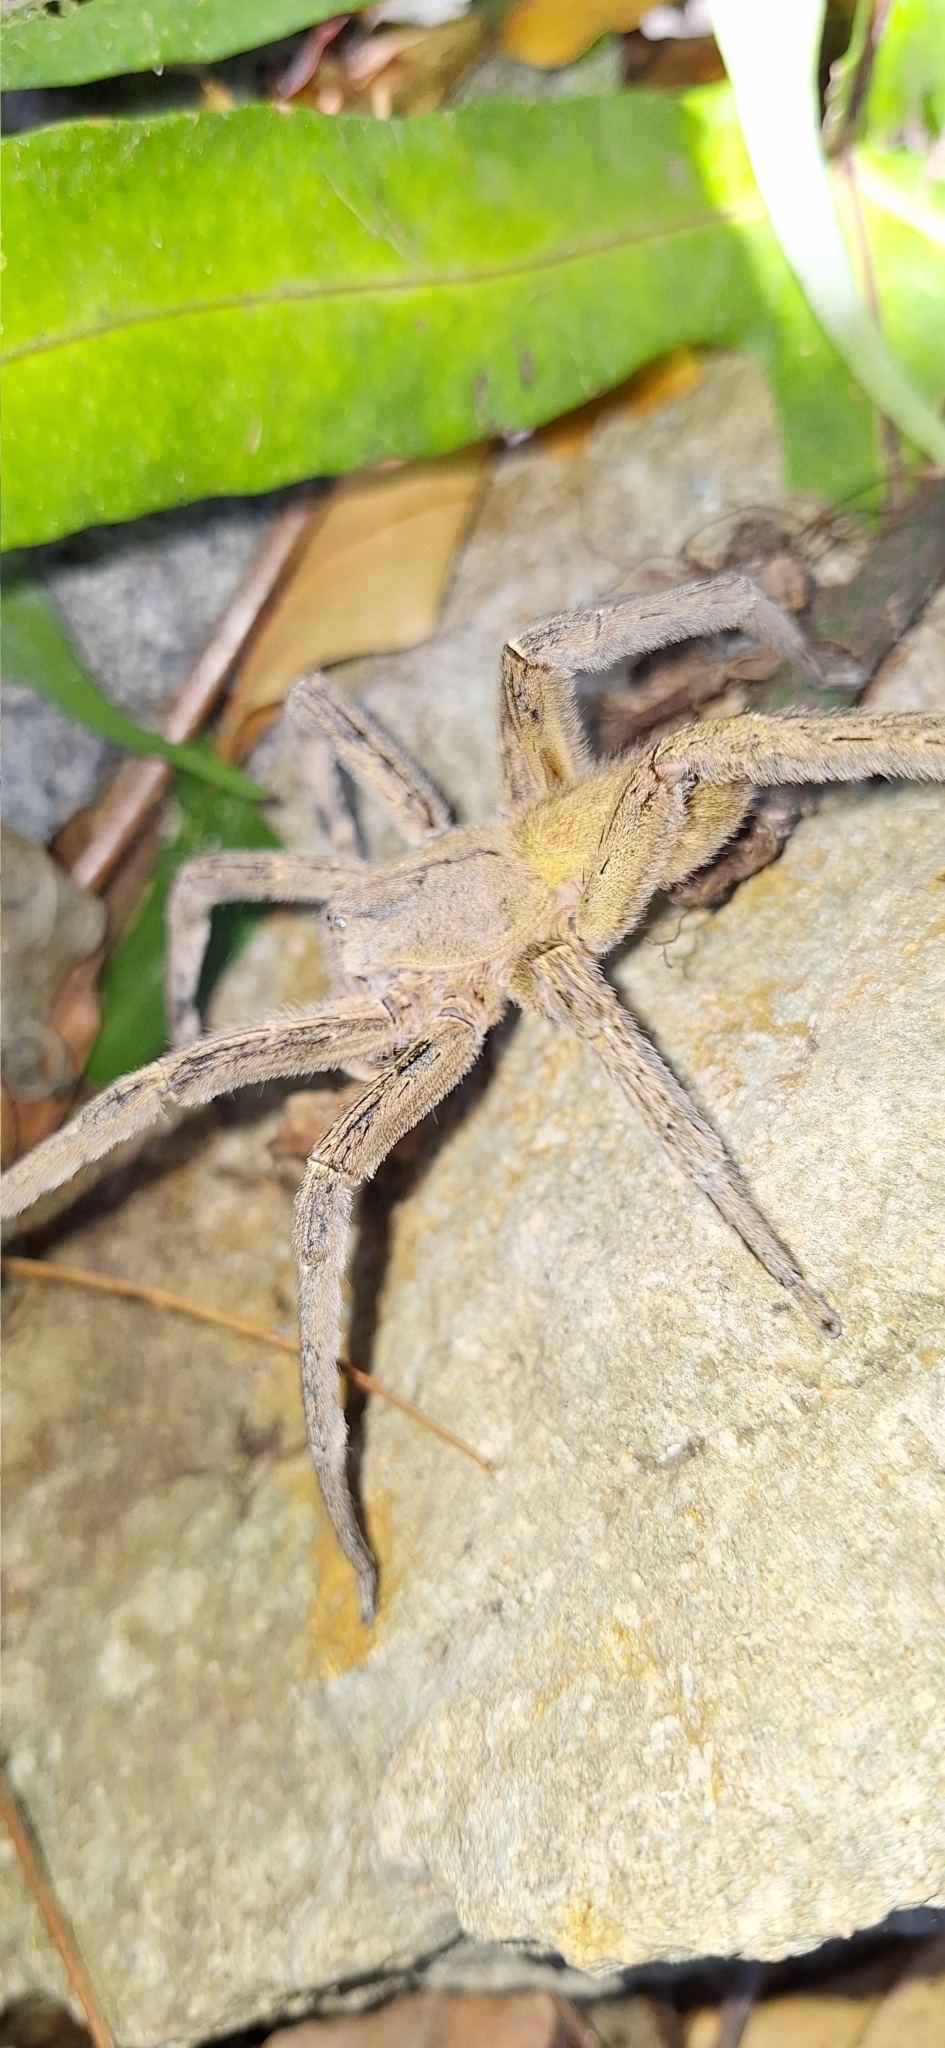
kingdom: Animalia
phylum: Arthropoda
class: Arachnida
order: Araneae
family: Ctenidae
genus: Phoneutria
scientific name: Phoneutria depilata
